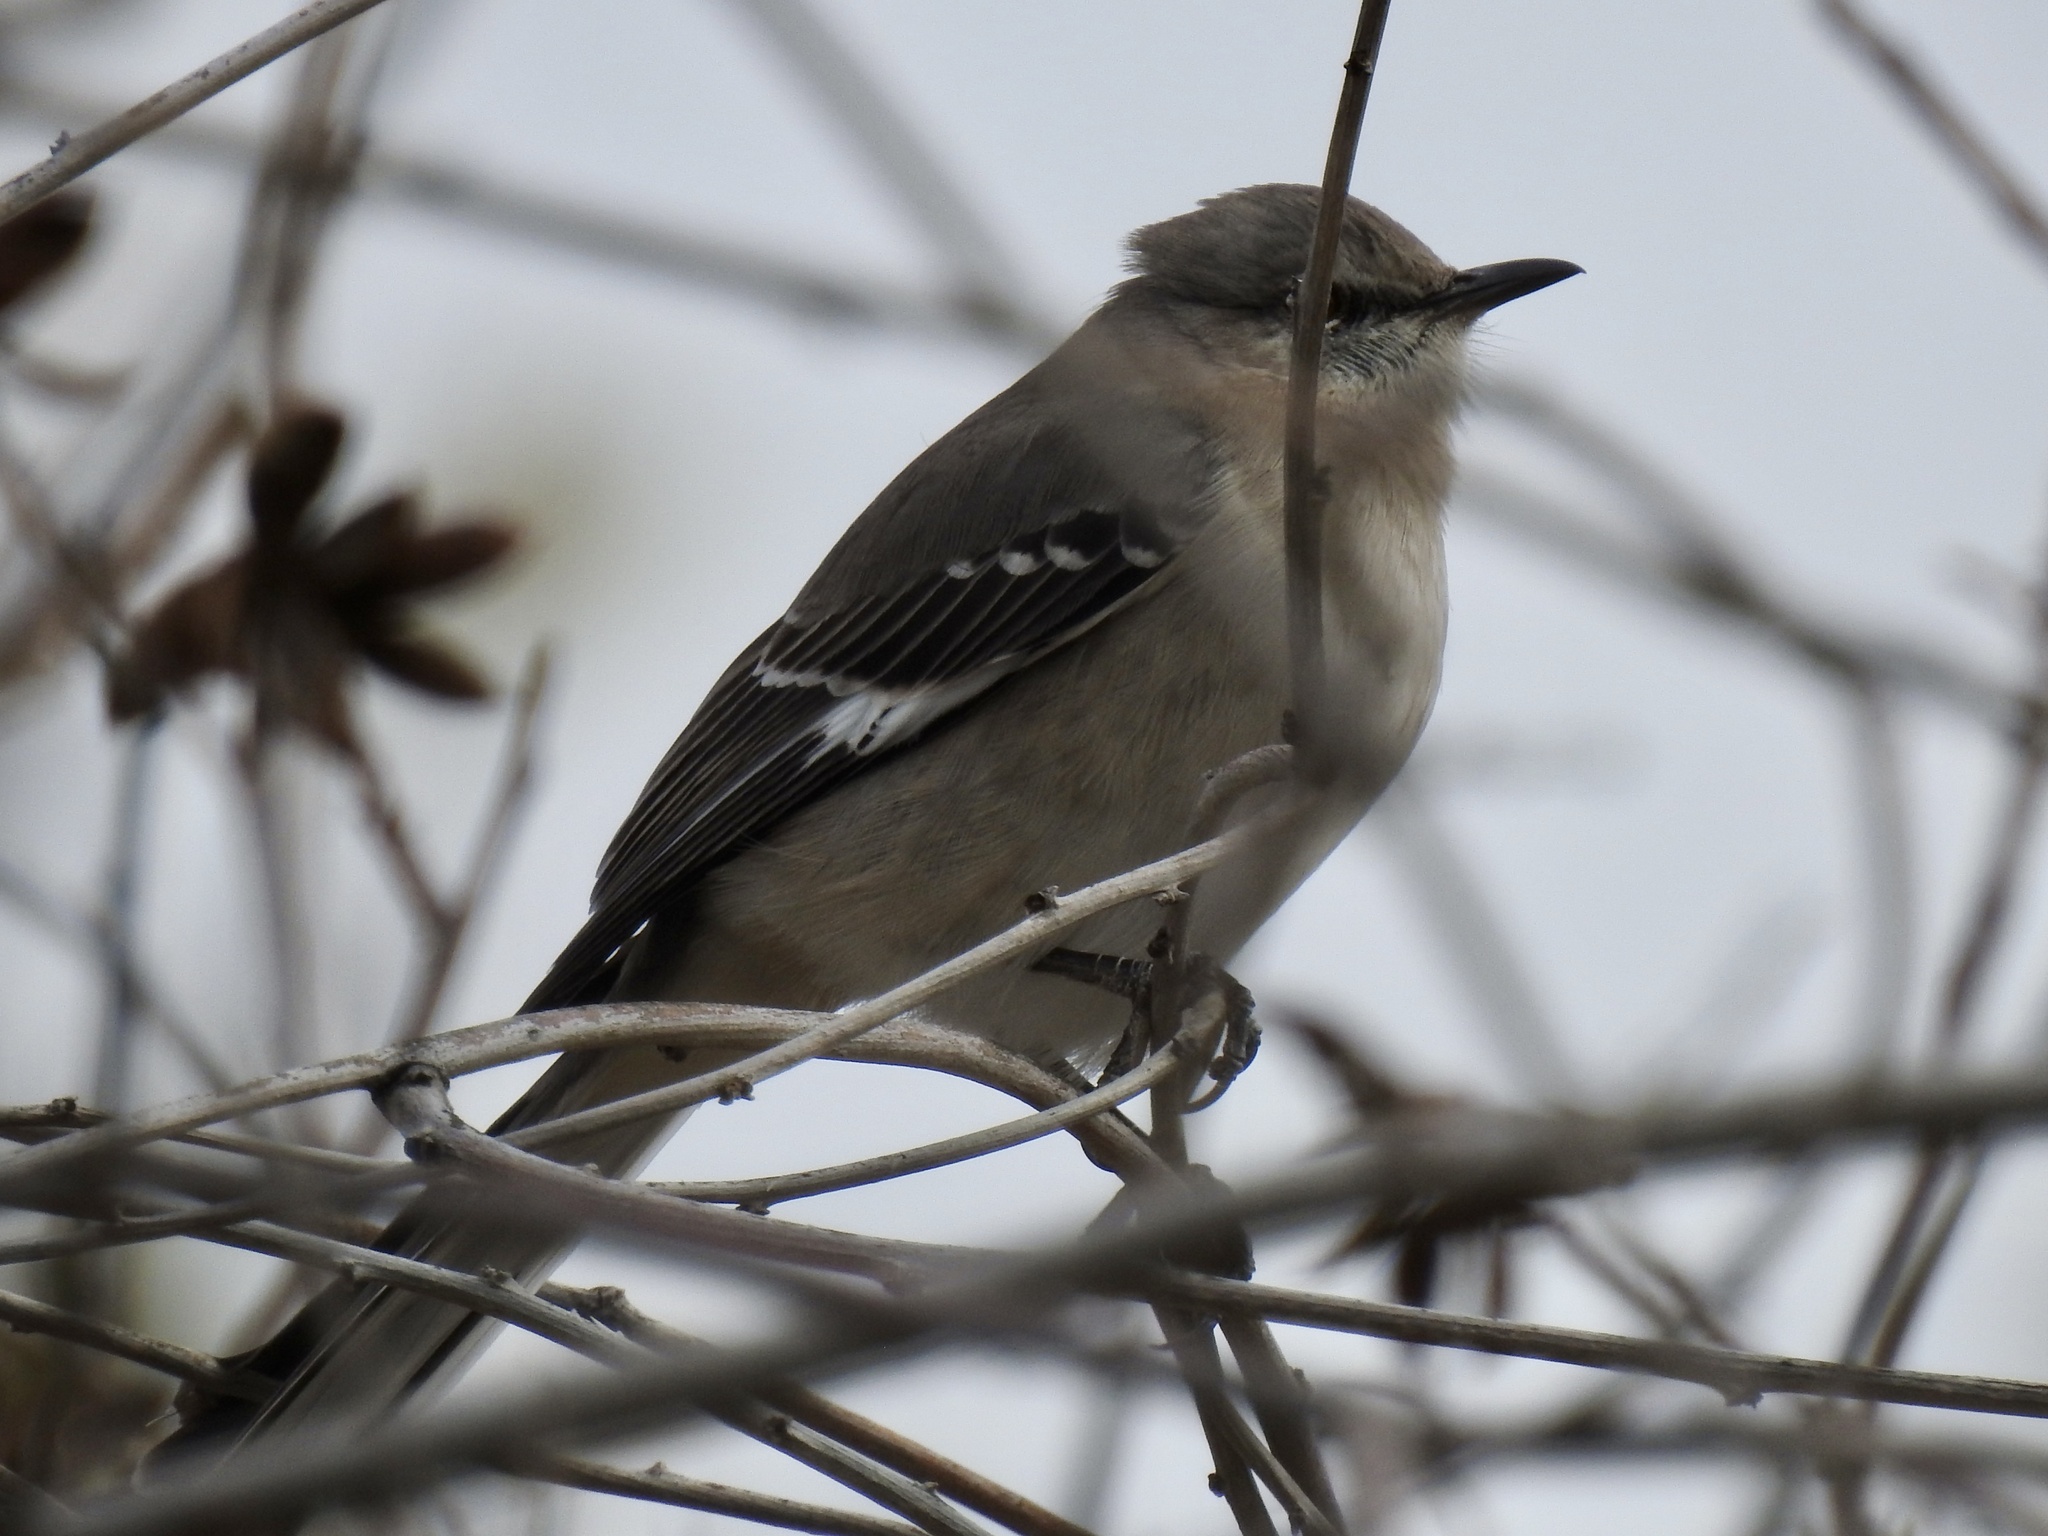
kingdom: Animalia
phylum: Chordata
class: Aves
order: Passeriformes
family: Mimidae
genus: Mimus
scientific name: Mimus polyglottos
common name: Northern mockingbird
